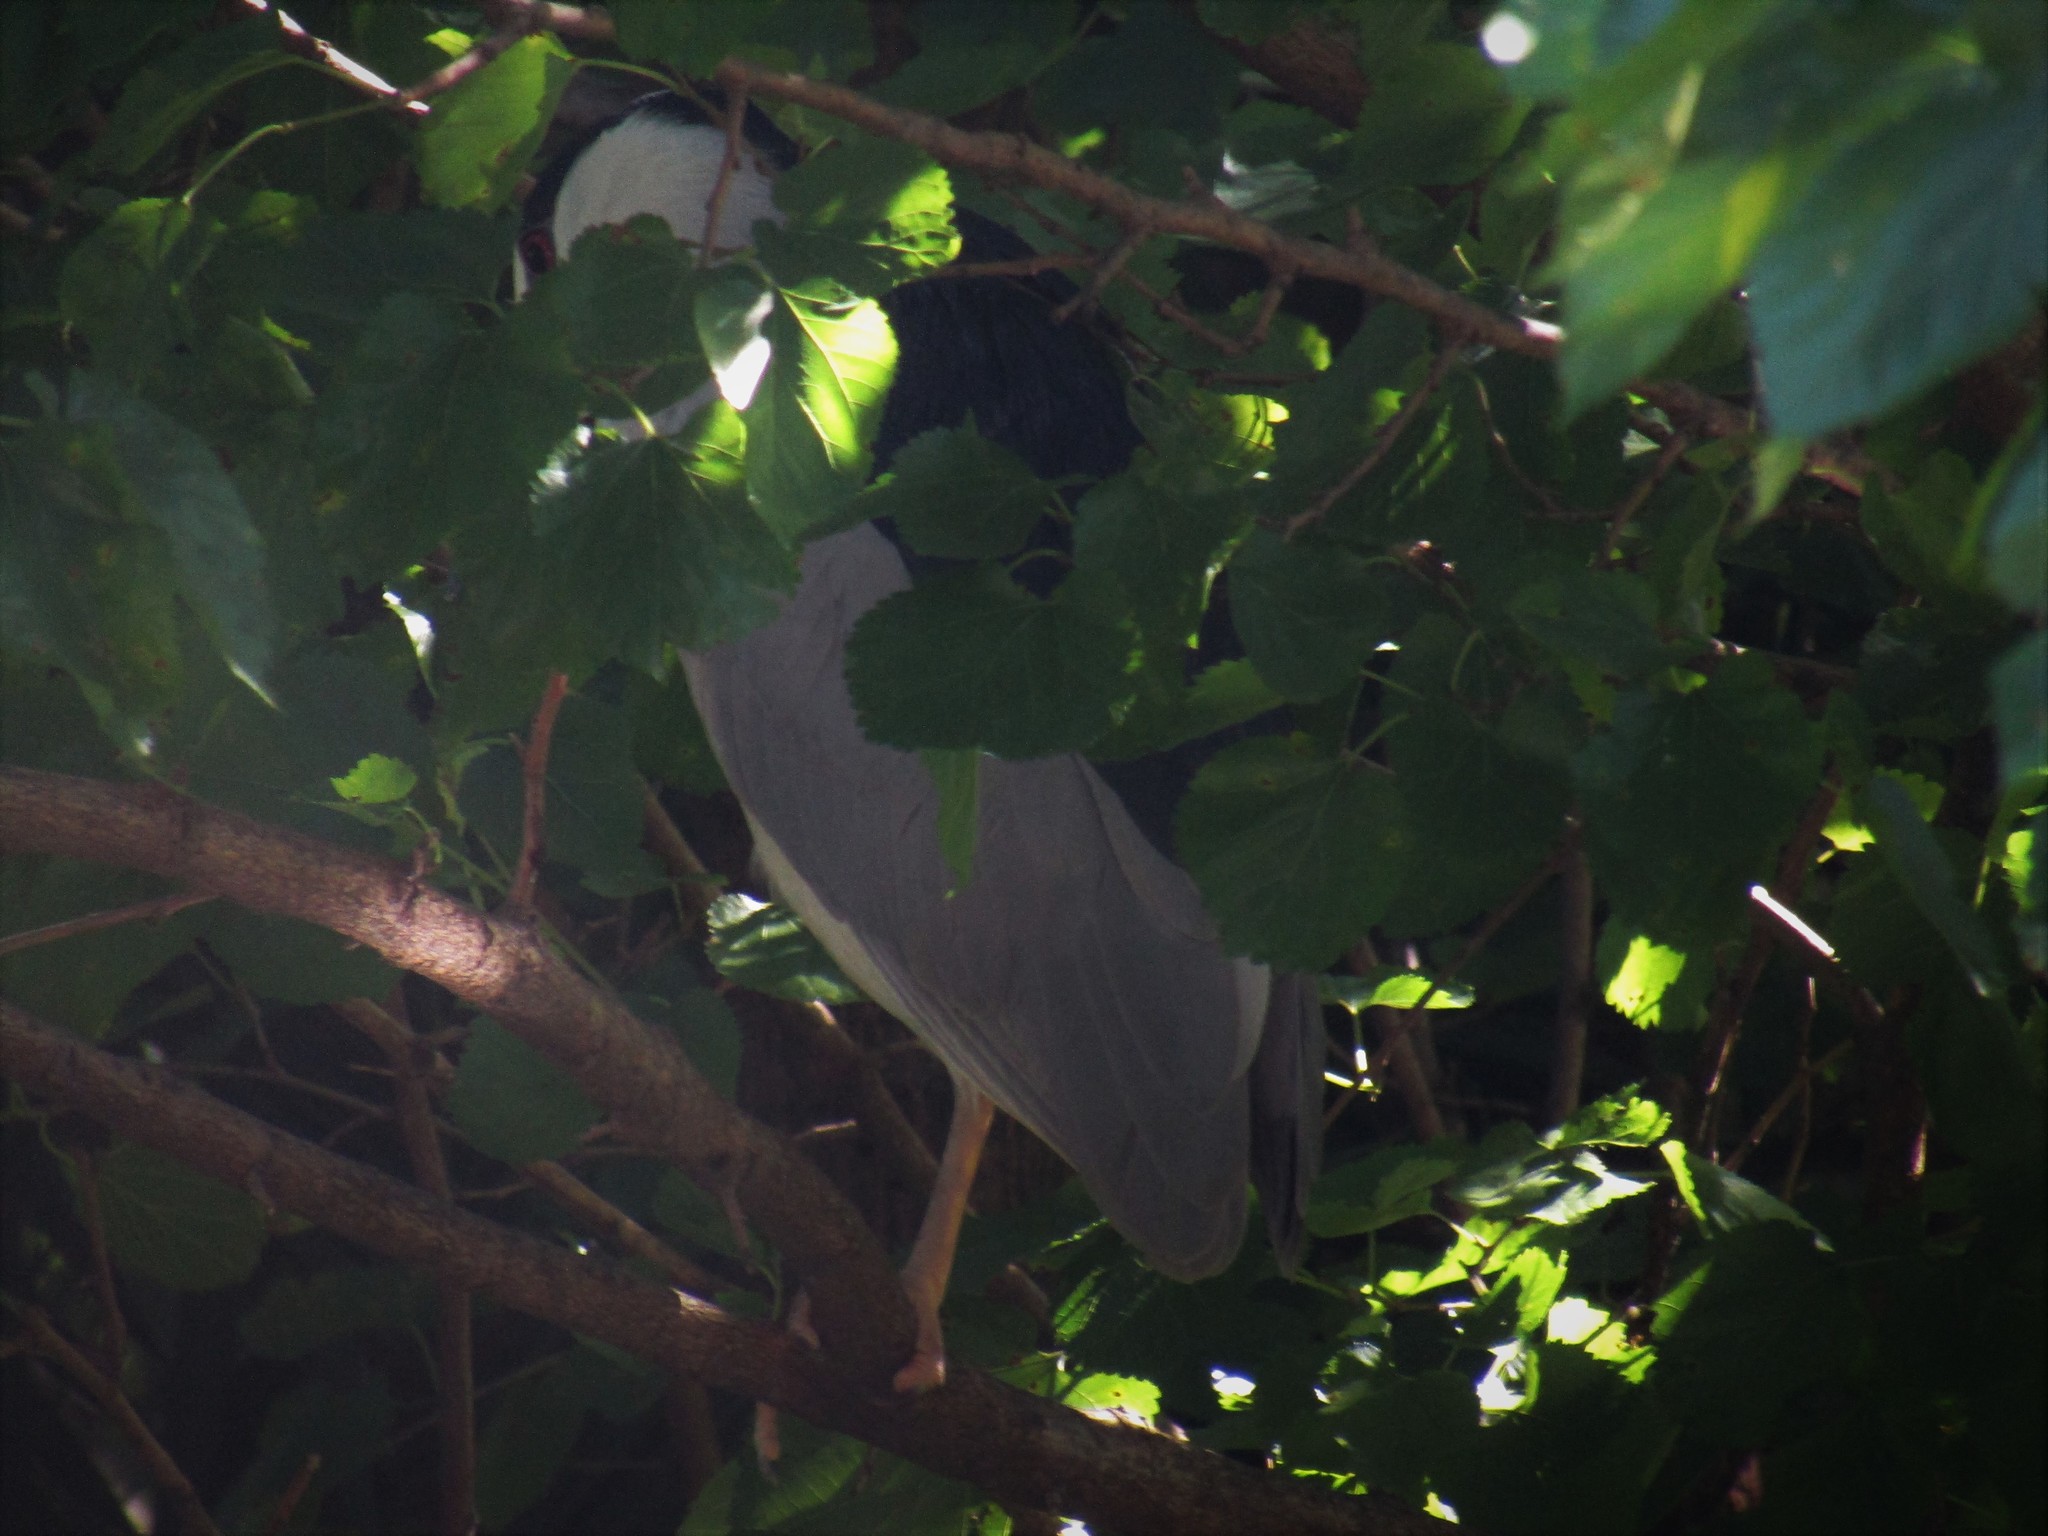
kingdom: Animalia
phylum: Chordata
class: Aves
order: Pelecaniformes
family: Ardeidae
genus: Nycticorax
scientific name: Nycticorax nycticorax
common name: Black-crowned night heron
